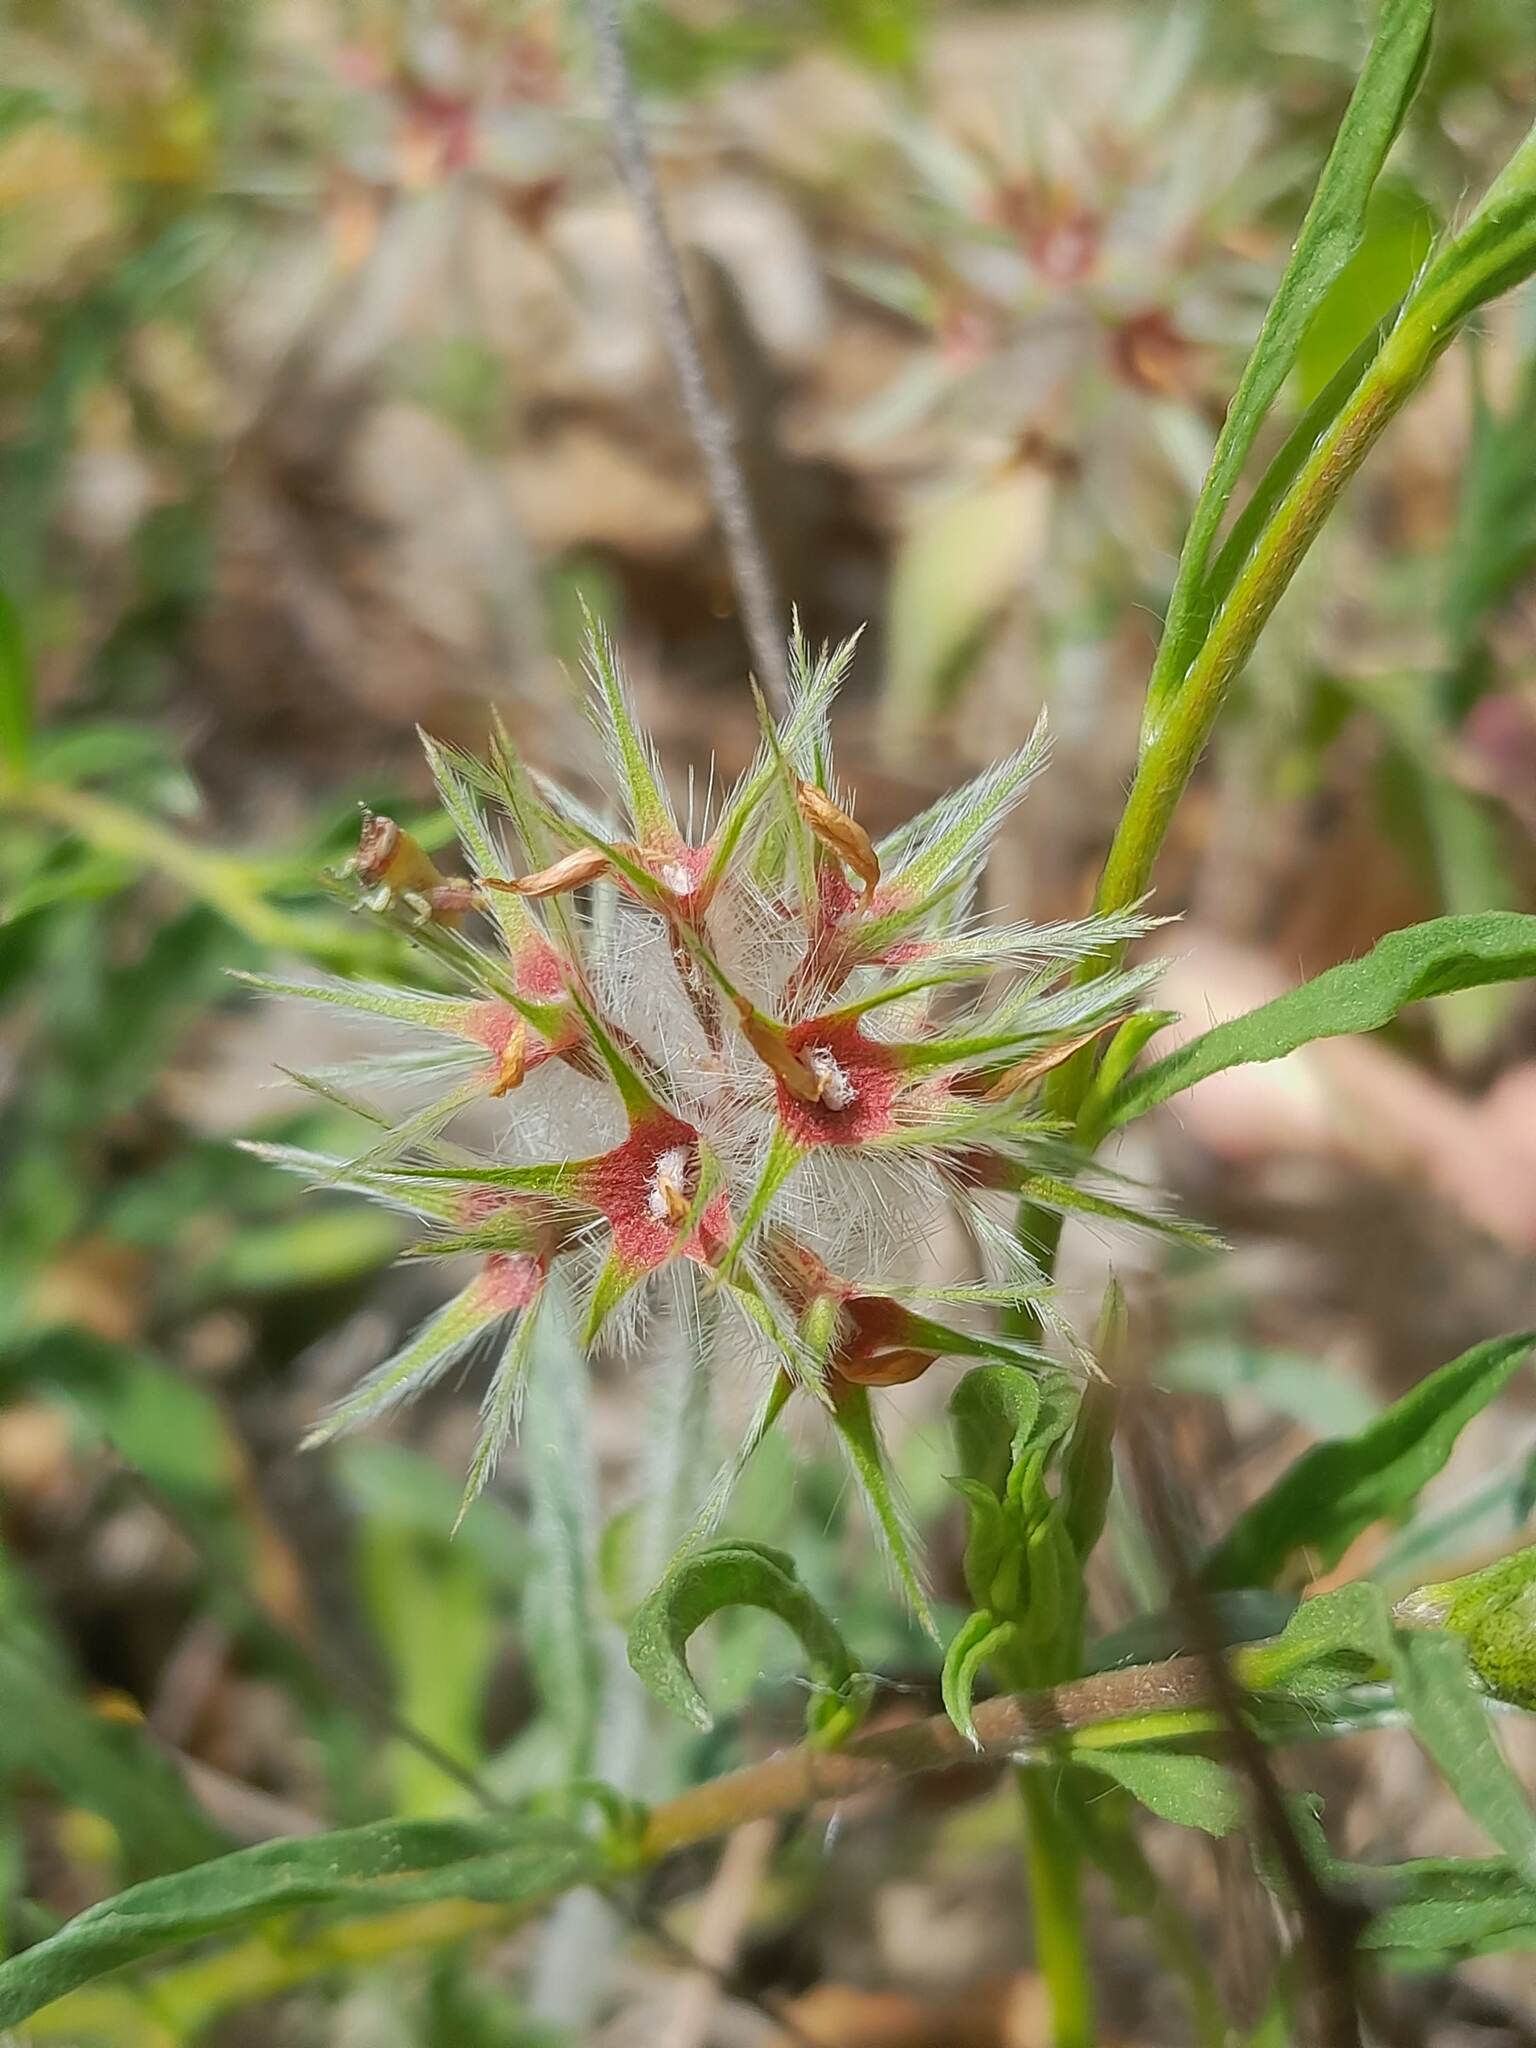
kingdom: Plantae
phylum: Tracheophyta
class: Magnoliopsida
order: Fabales
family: Fabaceae
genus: Trifolium
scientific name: Trifolium stellatum
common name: Starry clover
